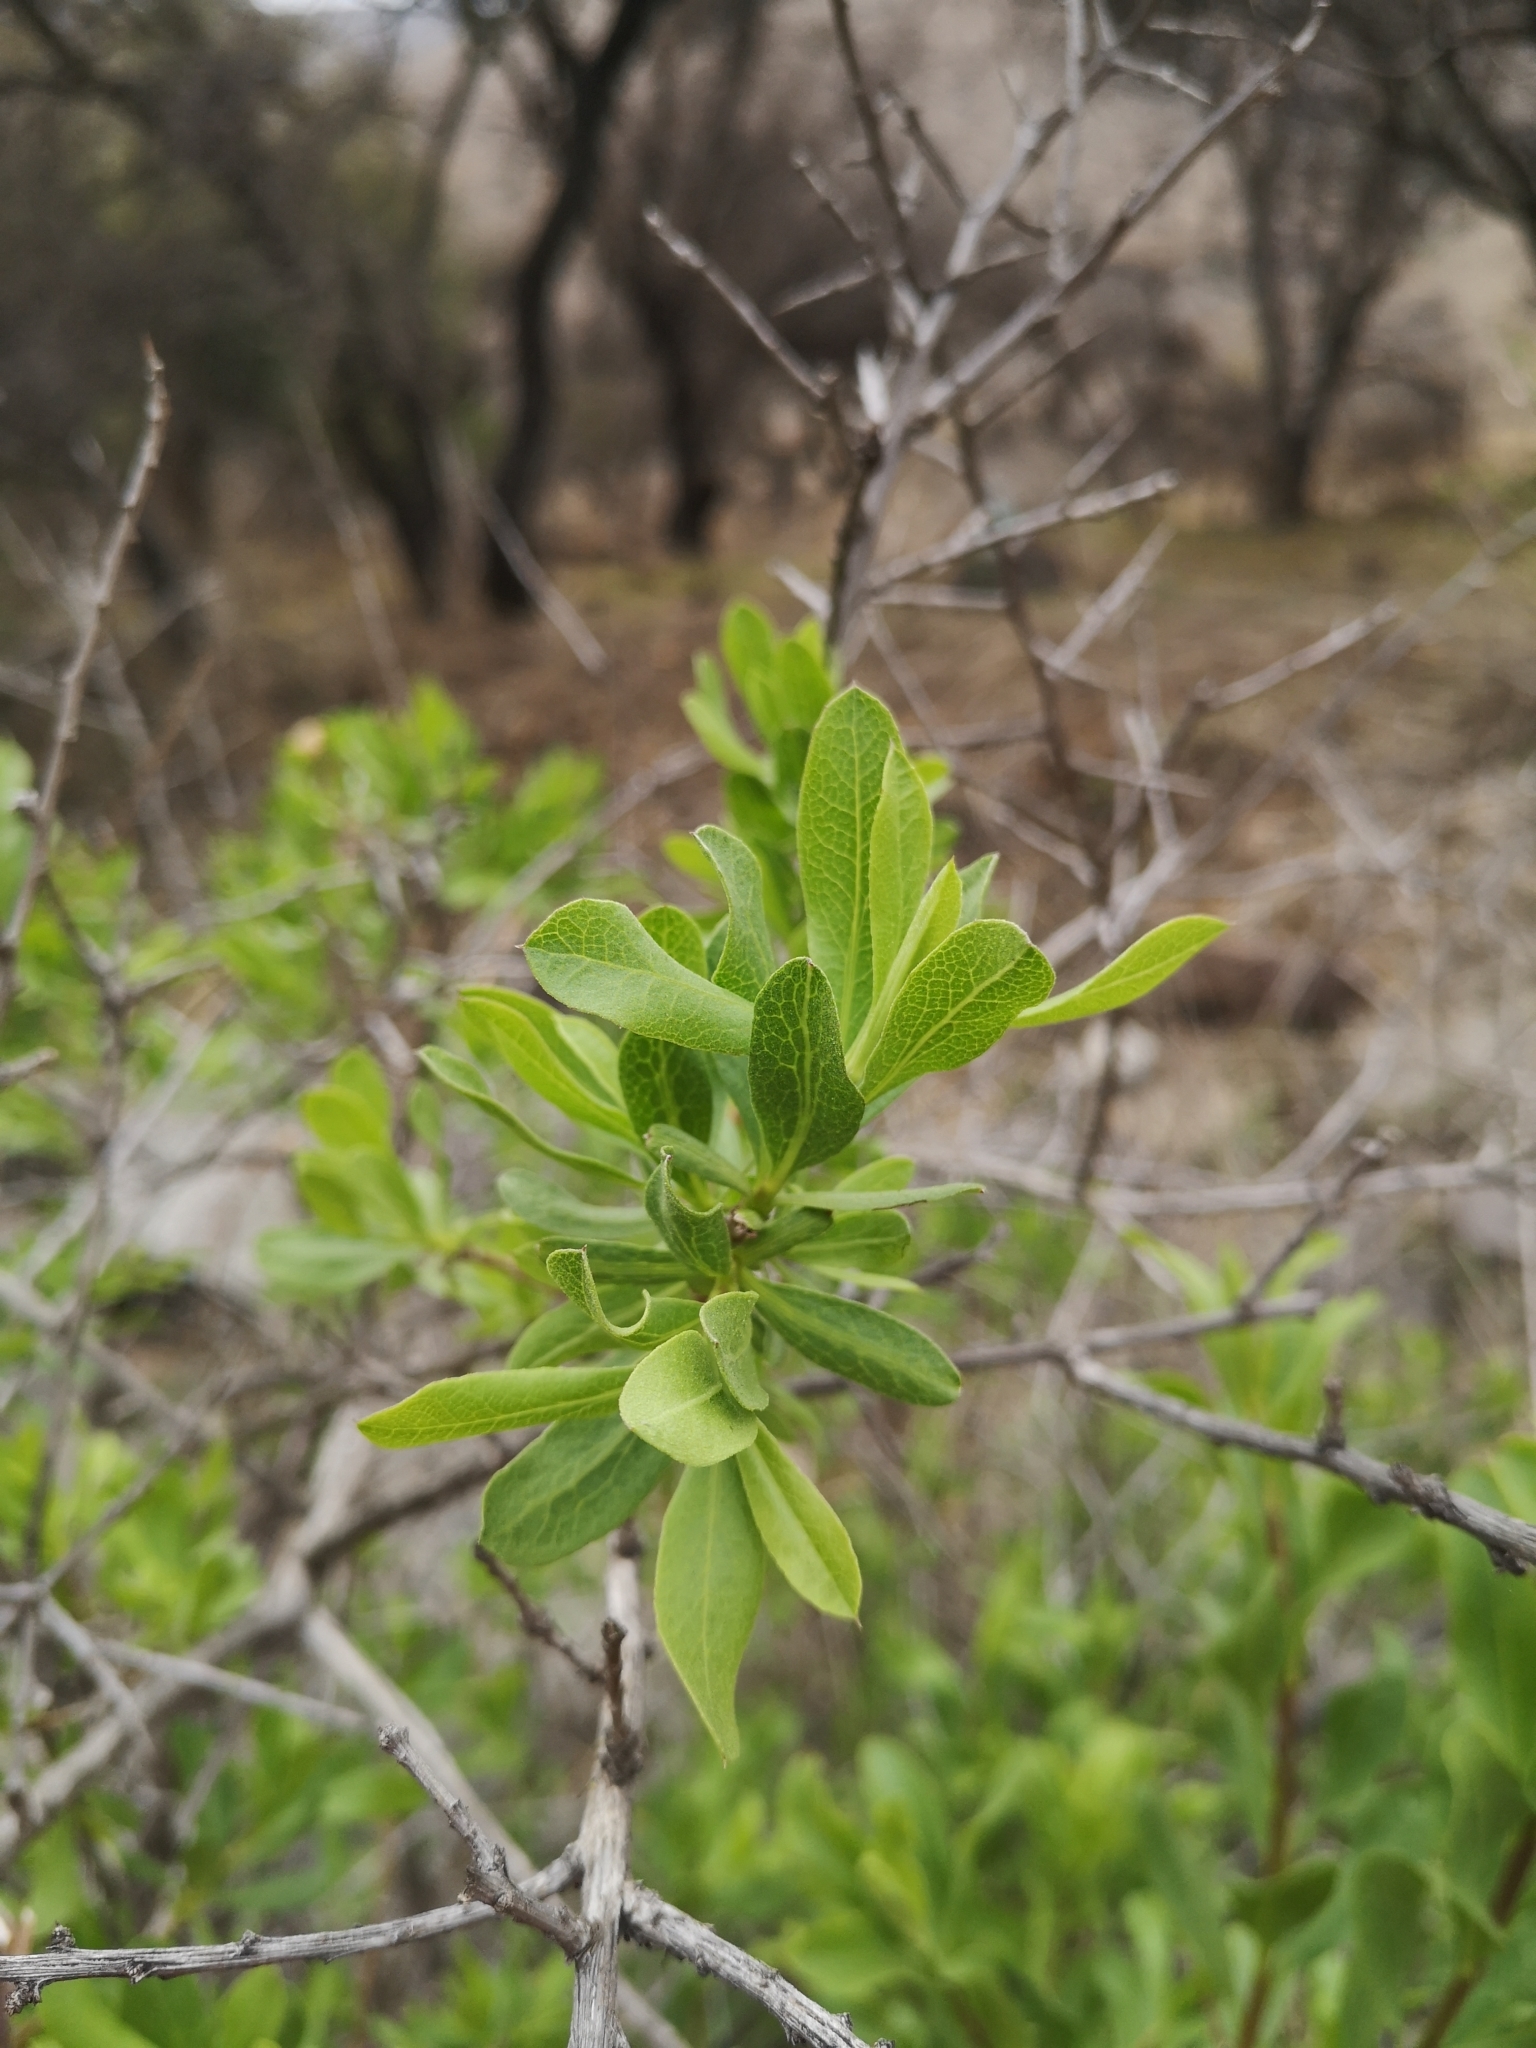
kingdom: Plantae
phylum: Tracheophyta
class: Magnoliopsida
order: Asterales
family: Asteraceae
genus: Proustia
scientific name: Proustia cuneifolia
